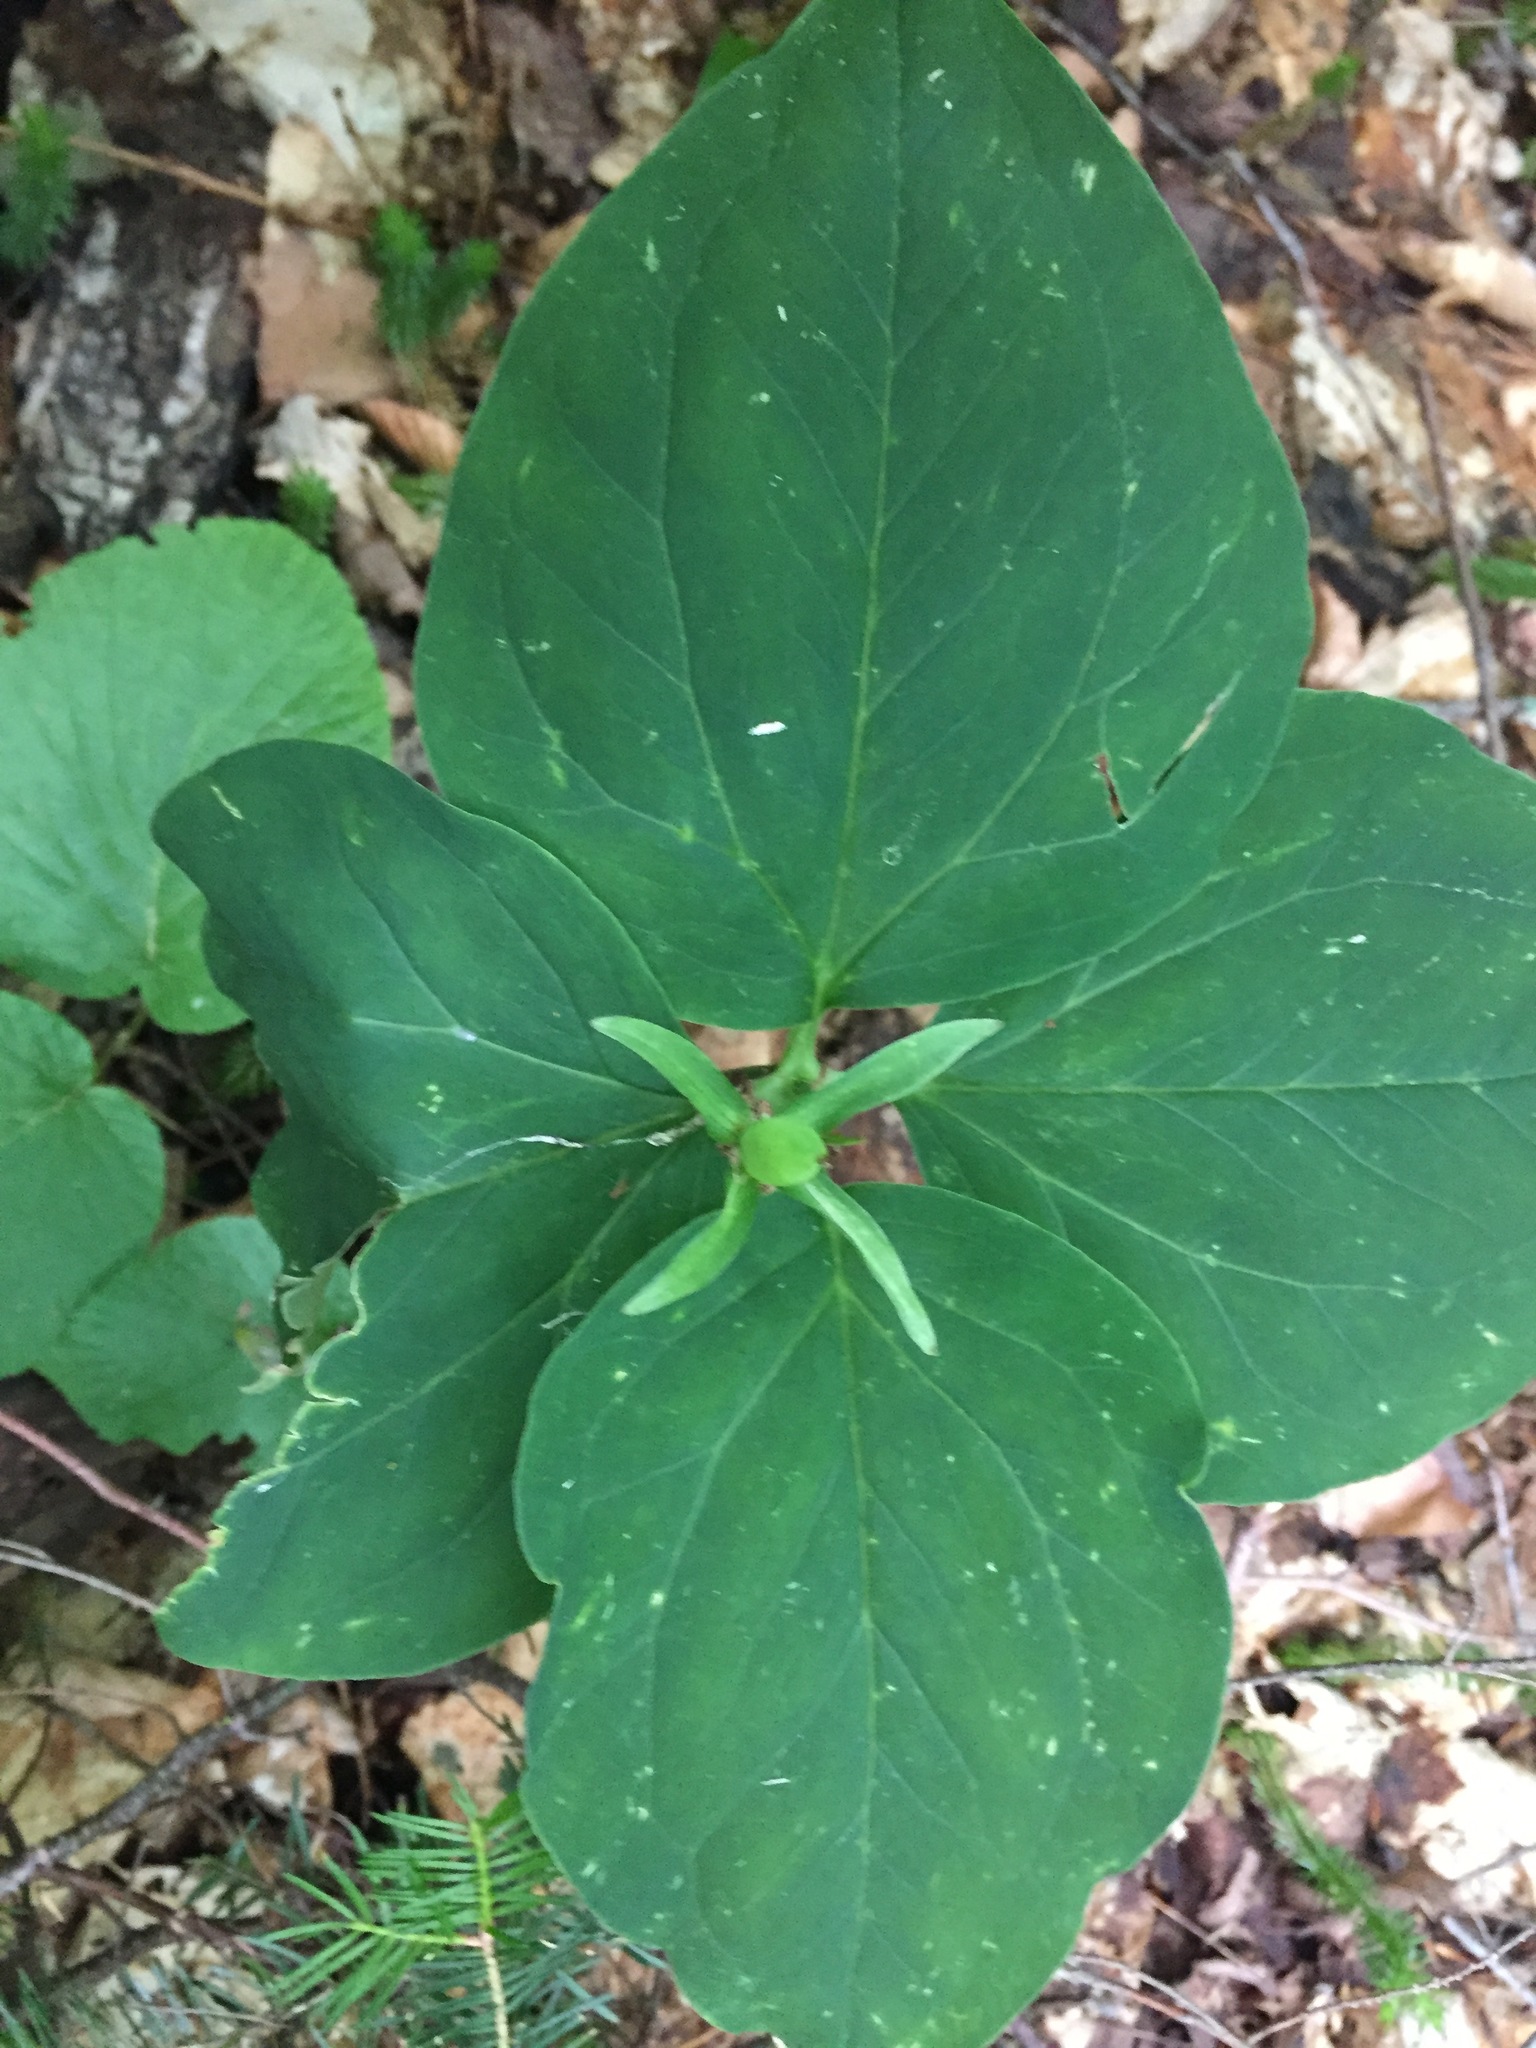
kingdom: Plantae
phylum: Tracheophyta
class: Liliopsida
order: Liliales
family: Melanthiaceae
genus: Trillium
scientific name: Trillium undulatum
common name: Paint trillium
